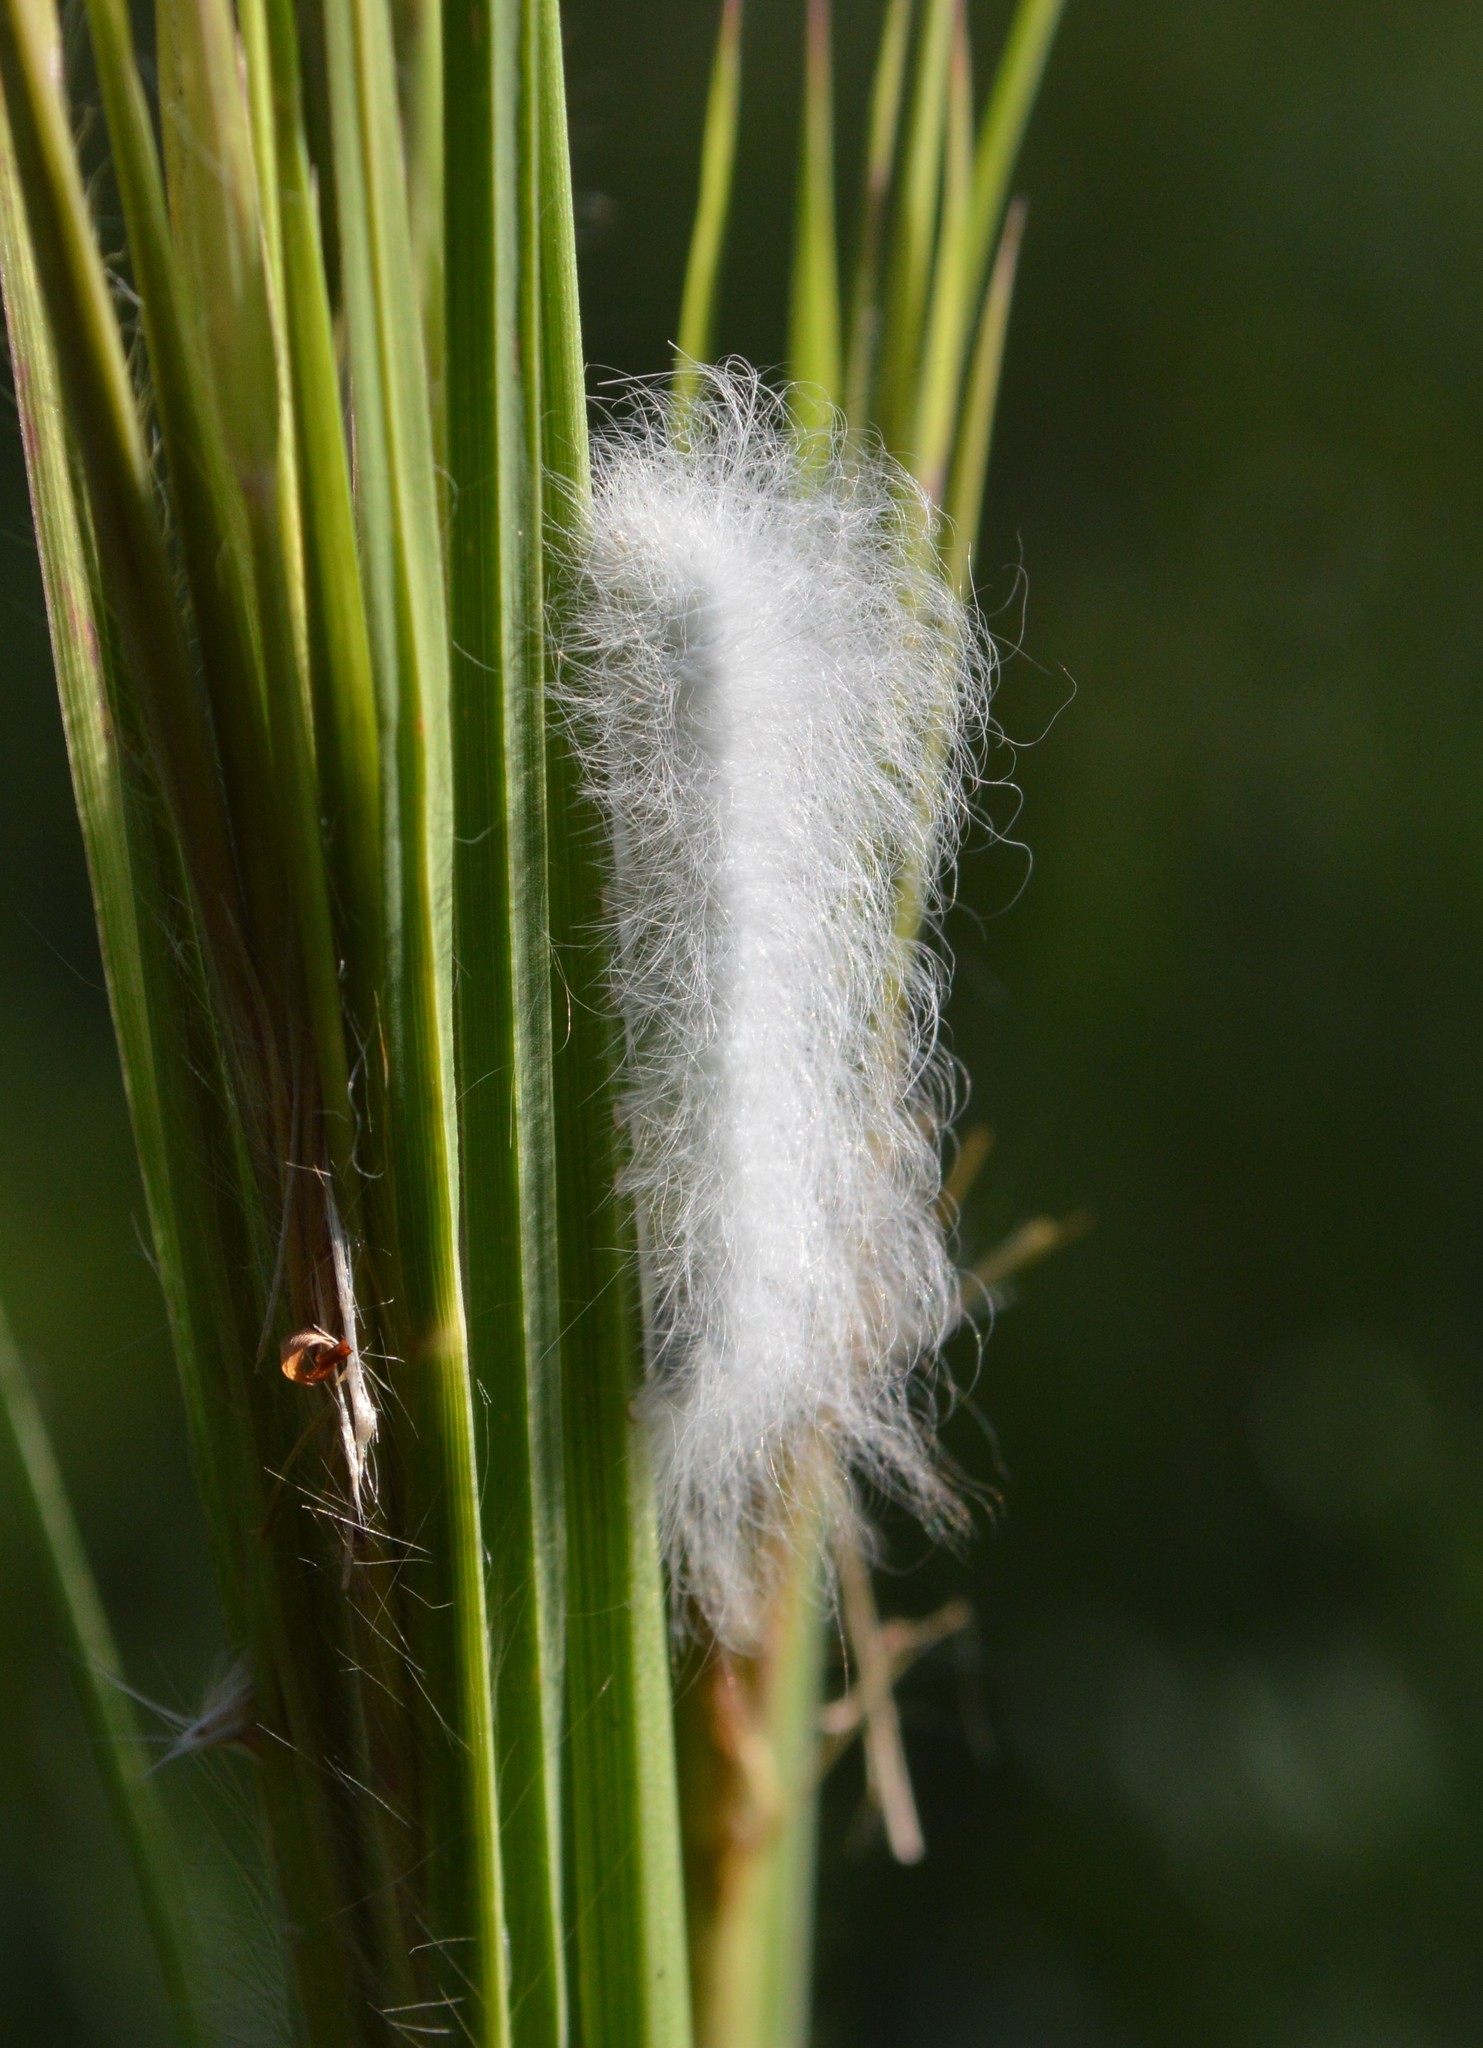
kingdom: Animalia
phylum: Arthropoda
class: Insecta
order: Lepidoptera
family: Apatelodidae
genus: Hygrochroa
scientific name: Hygrochroa Apatelodes torrefacta
